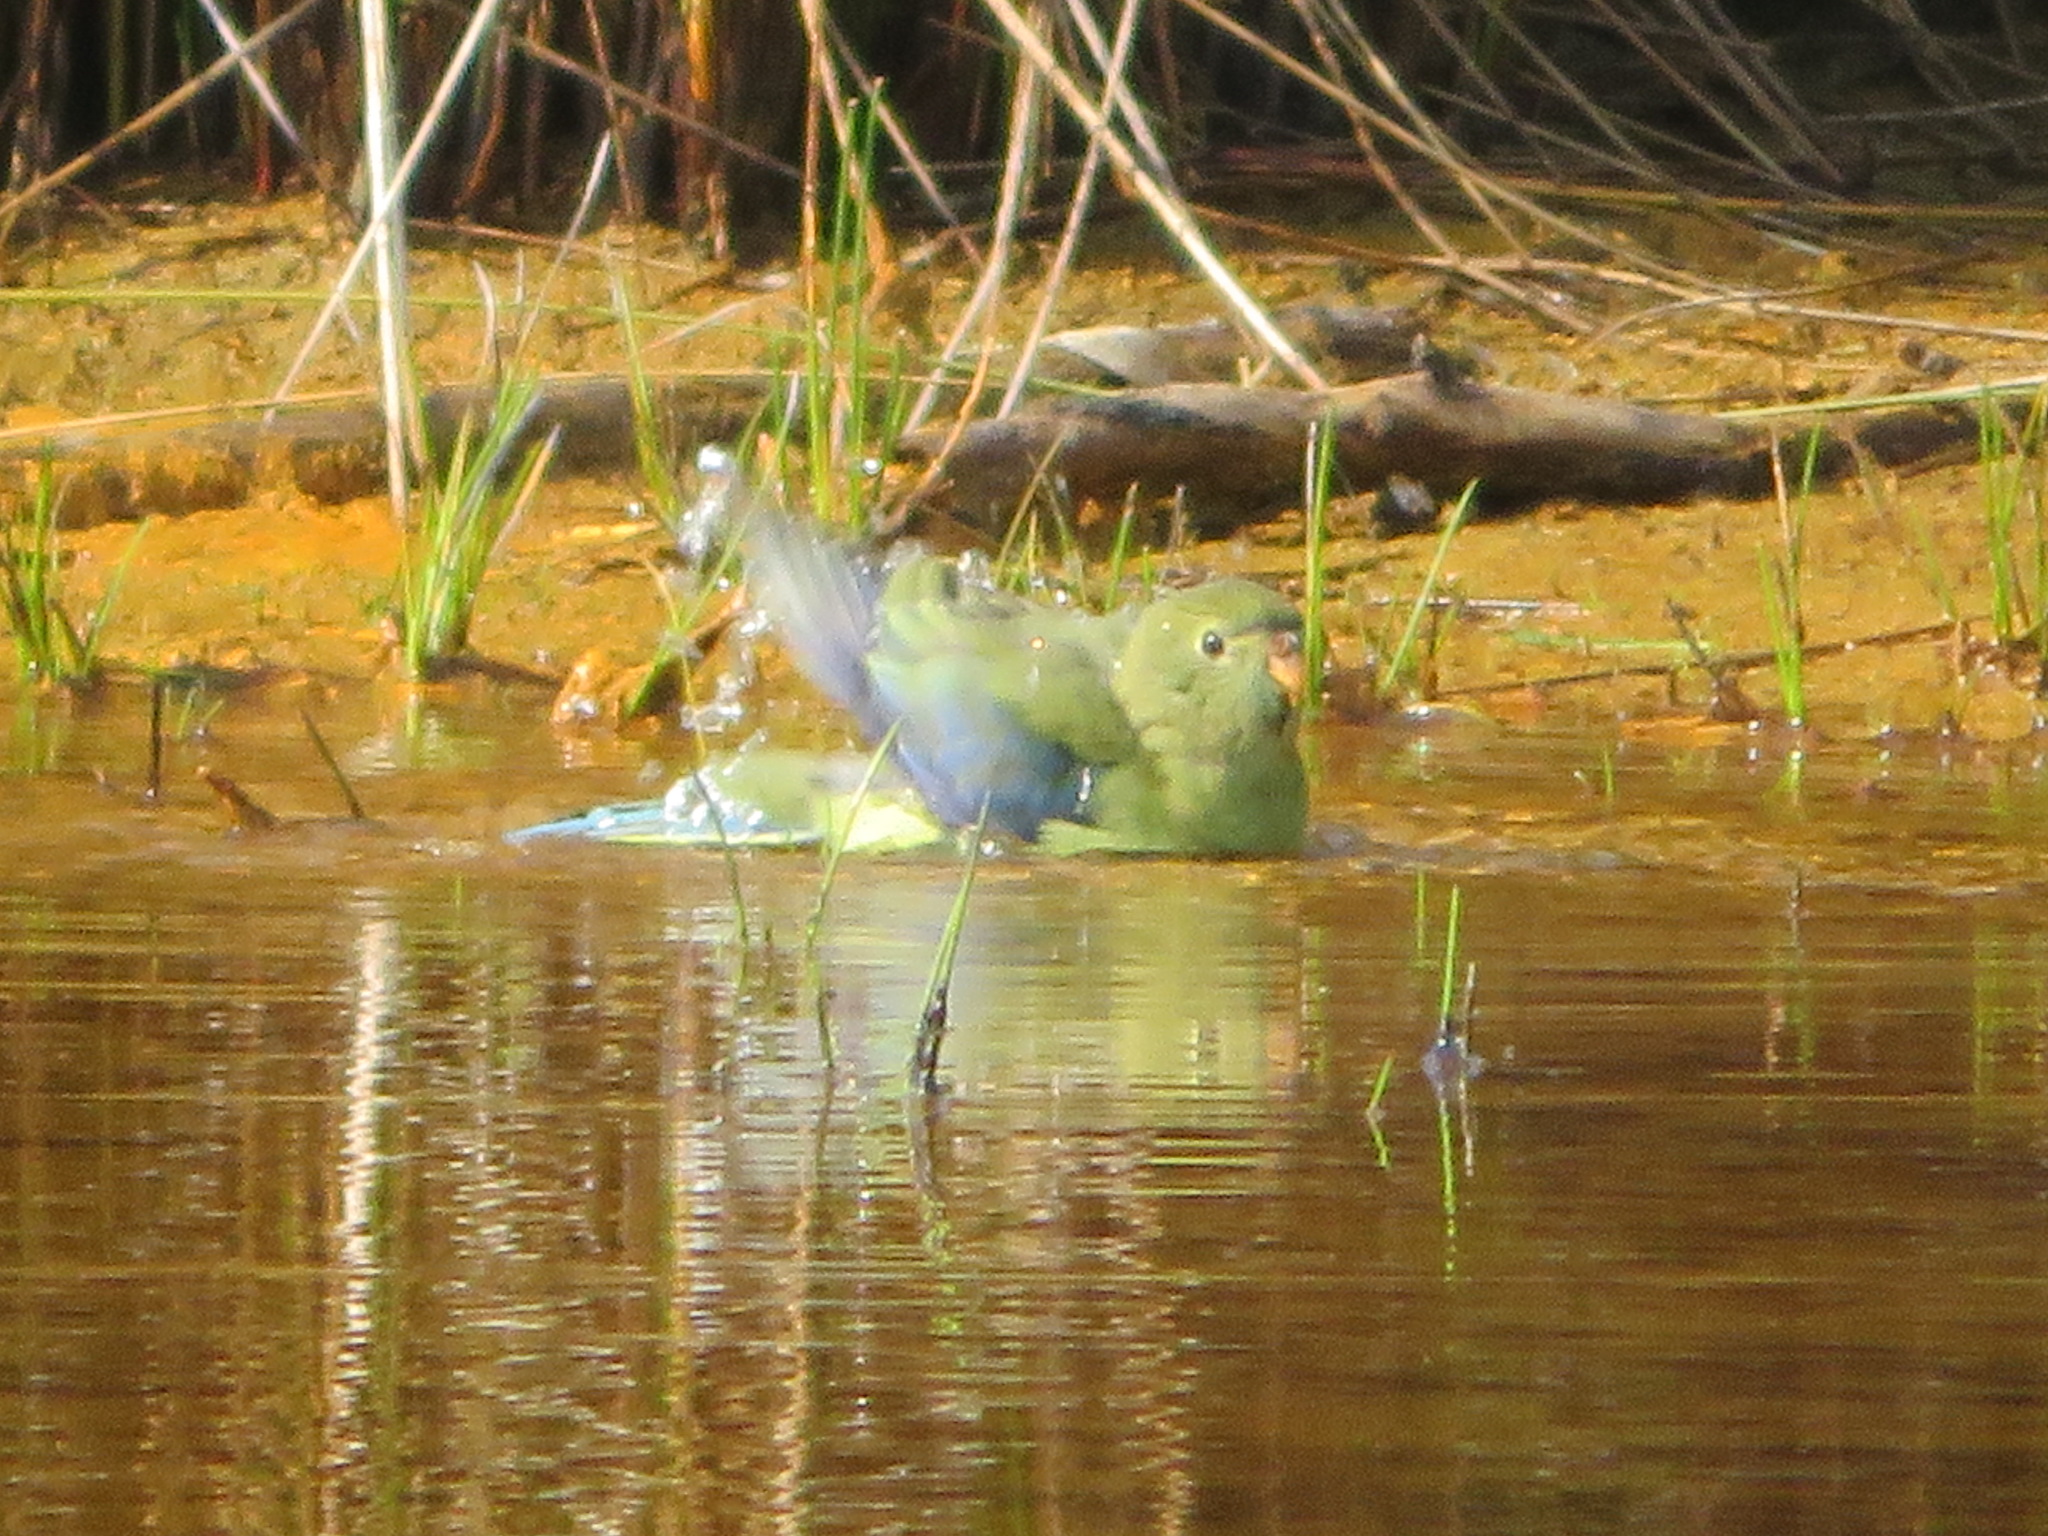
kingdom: Animalia
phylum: Chordata
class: Aves
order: Psittaciformes
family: Psittacidae
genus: Neophema
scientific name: Neophema chrysostoma
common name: Blue-winged parrot
